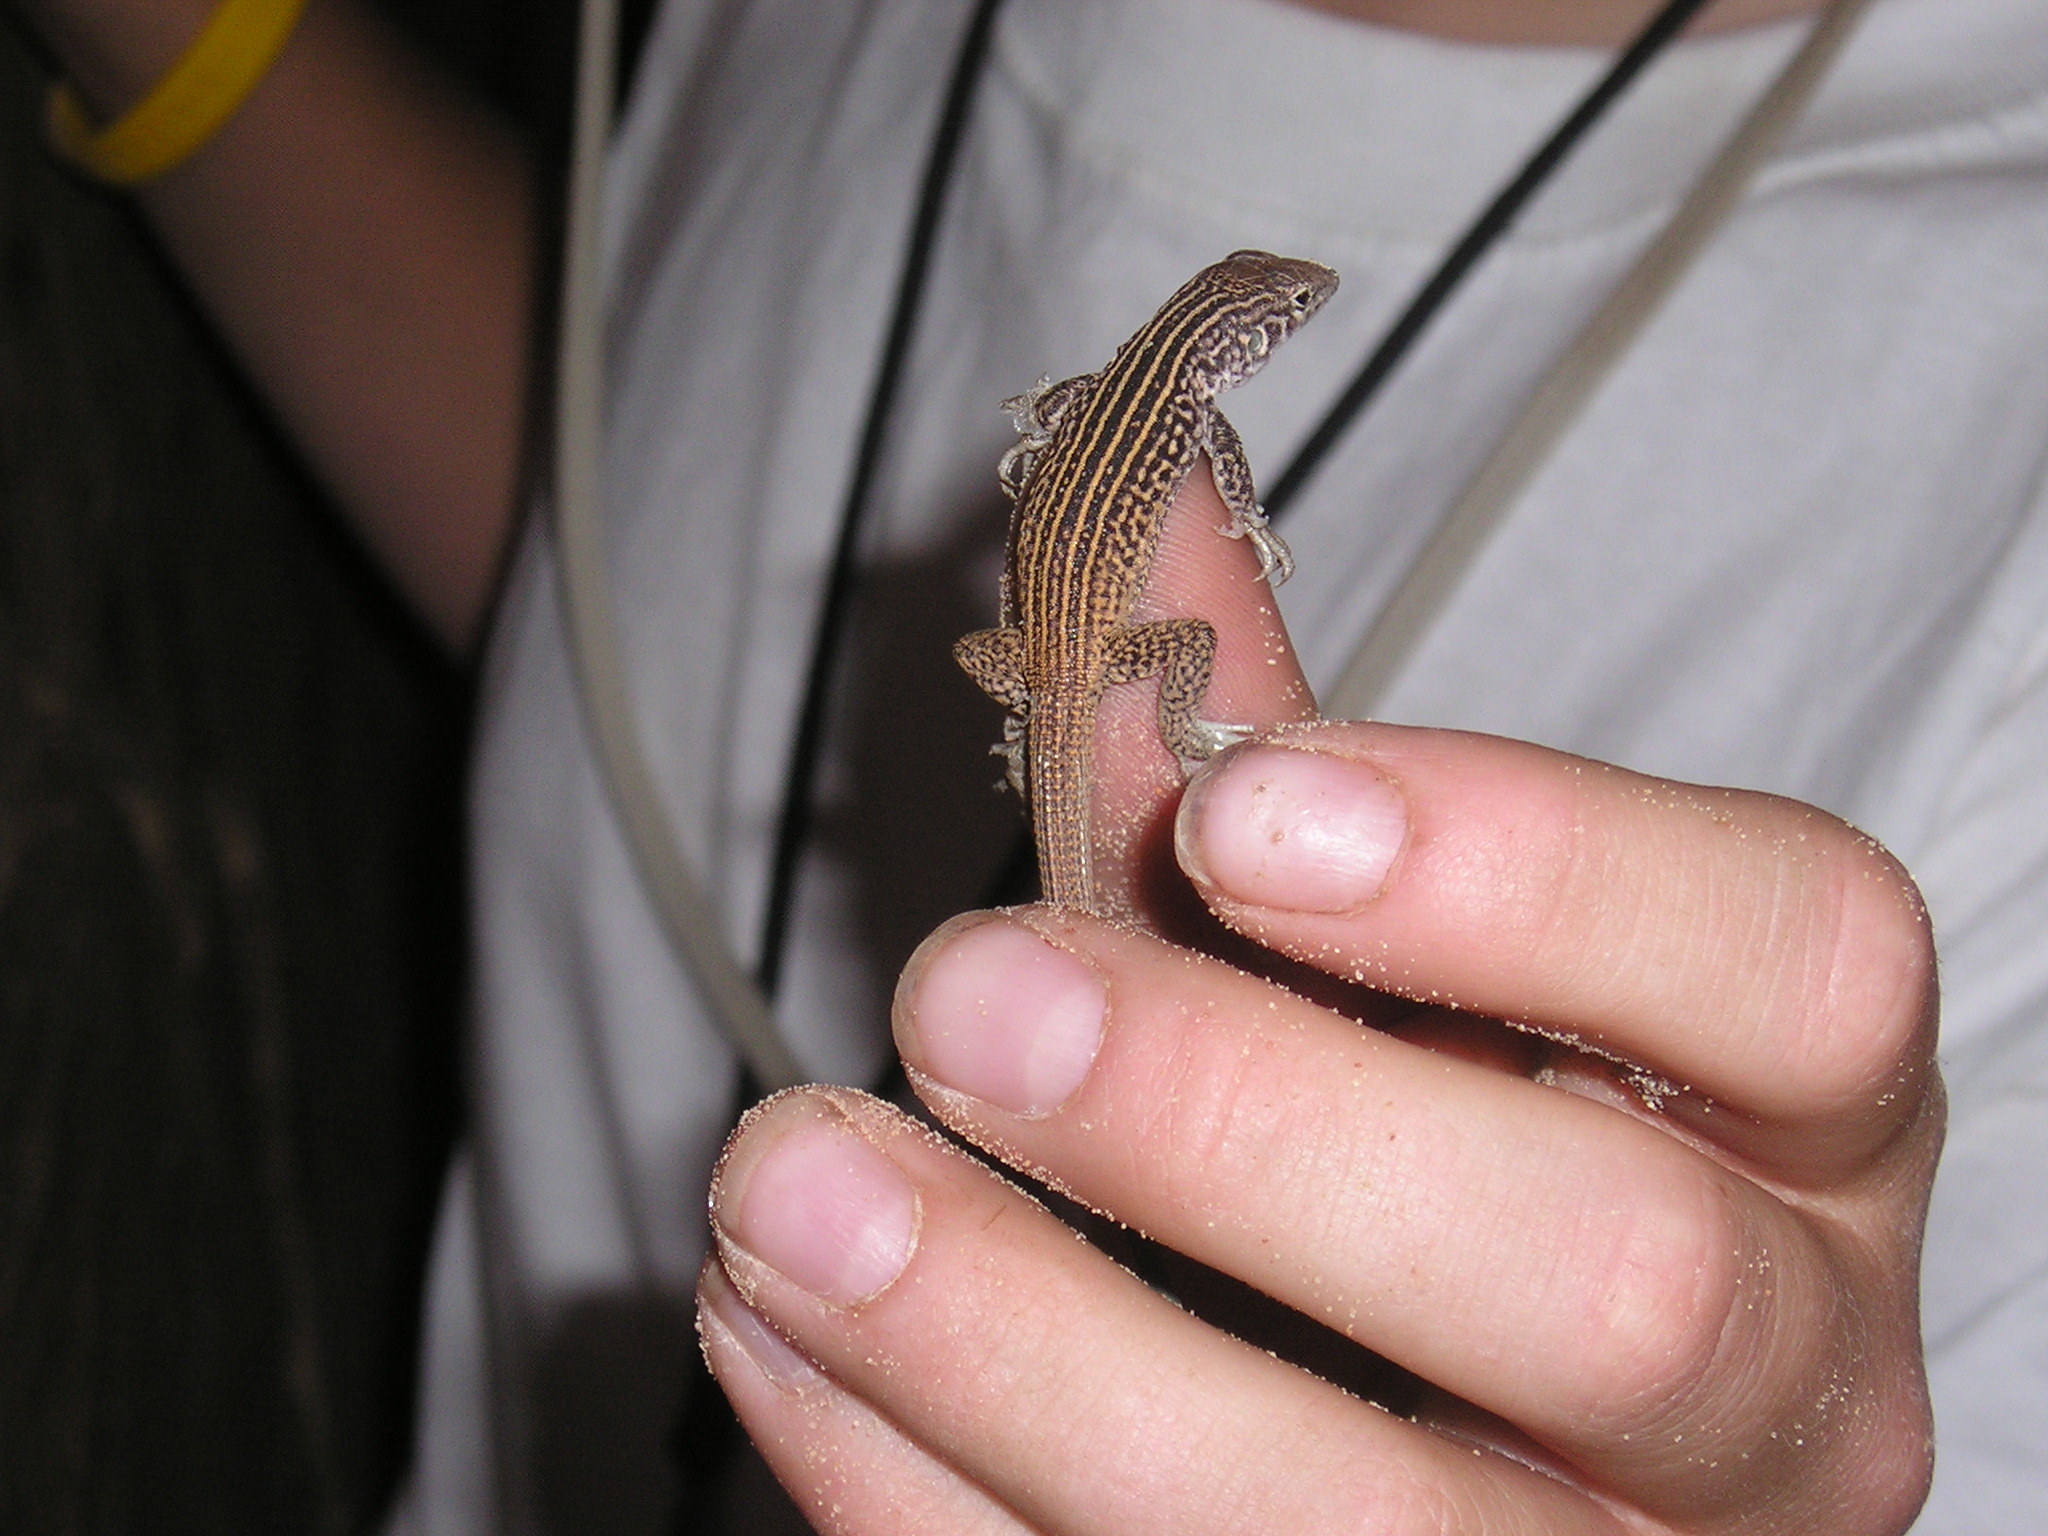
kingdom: Animalia
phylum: Chordata
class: Squamata
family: Teiidae
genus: Aspidoscelis
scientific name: Aspidoscelis tigris
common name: Tiger whiptail
